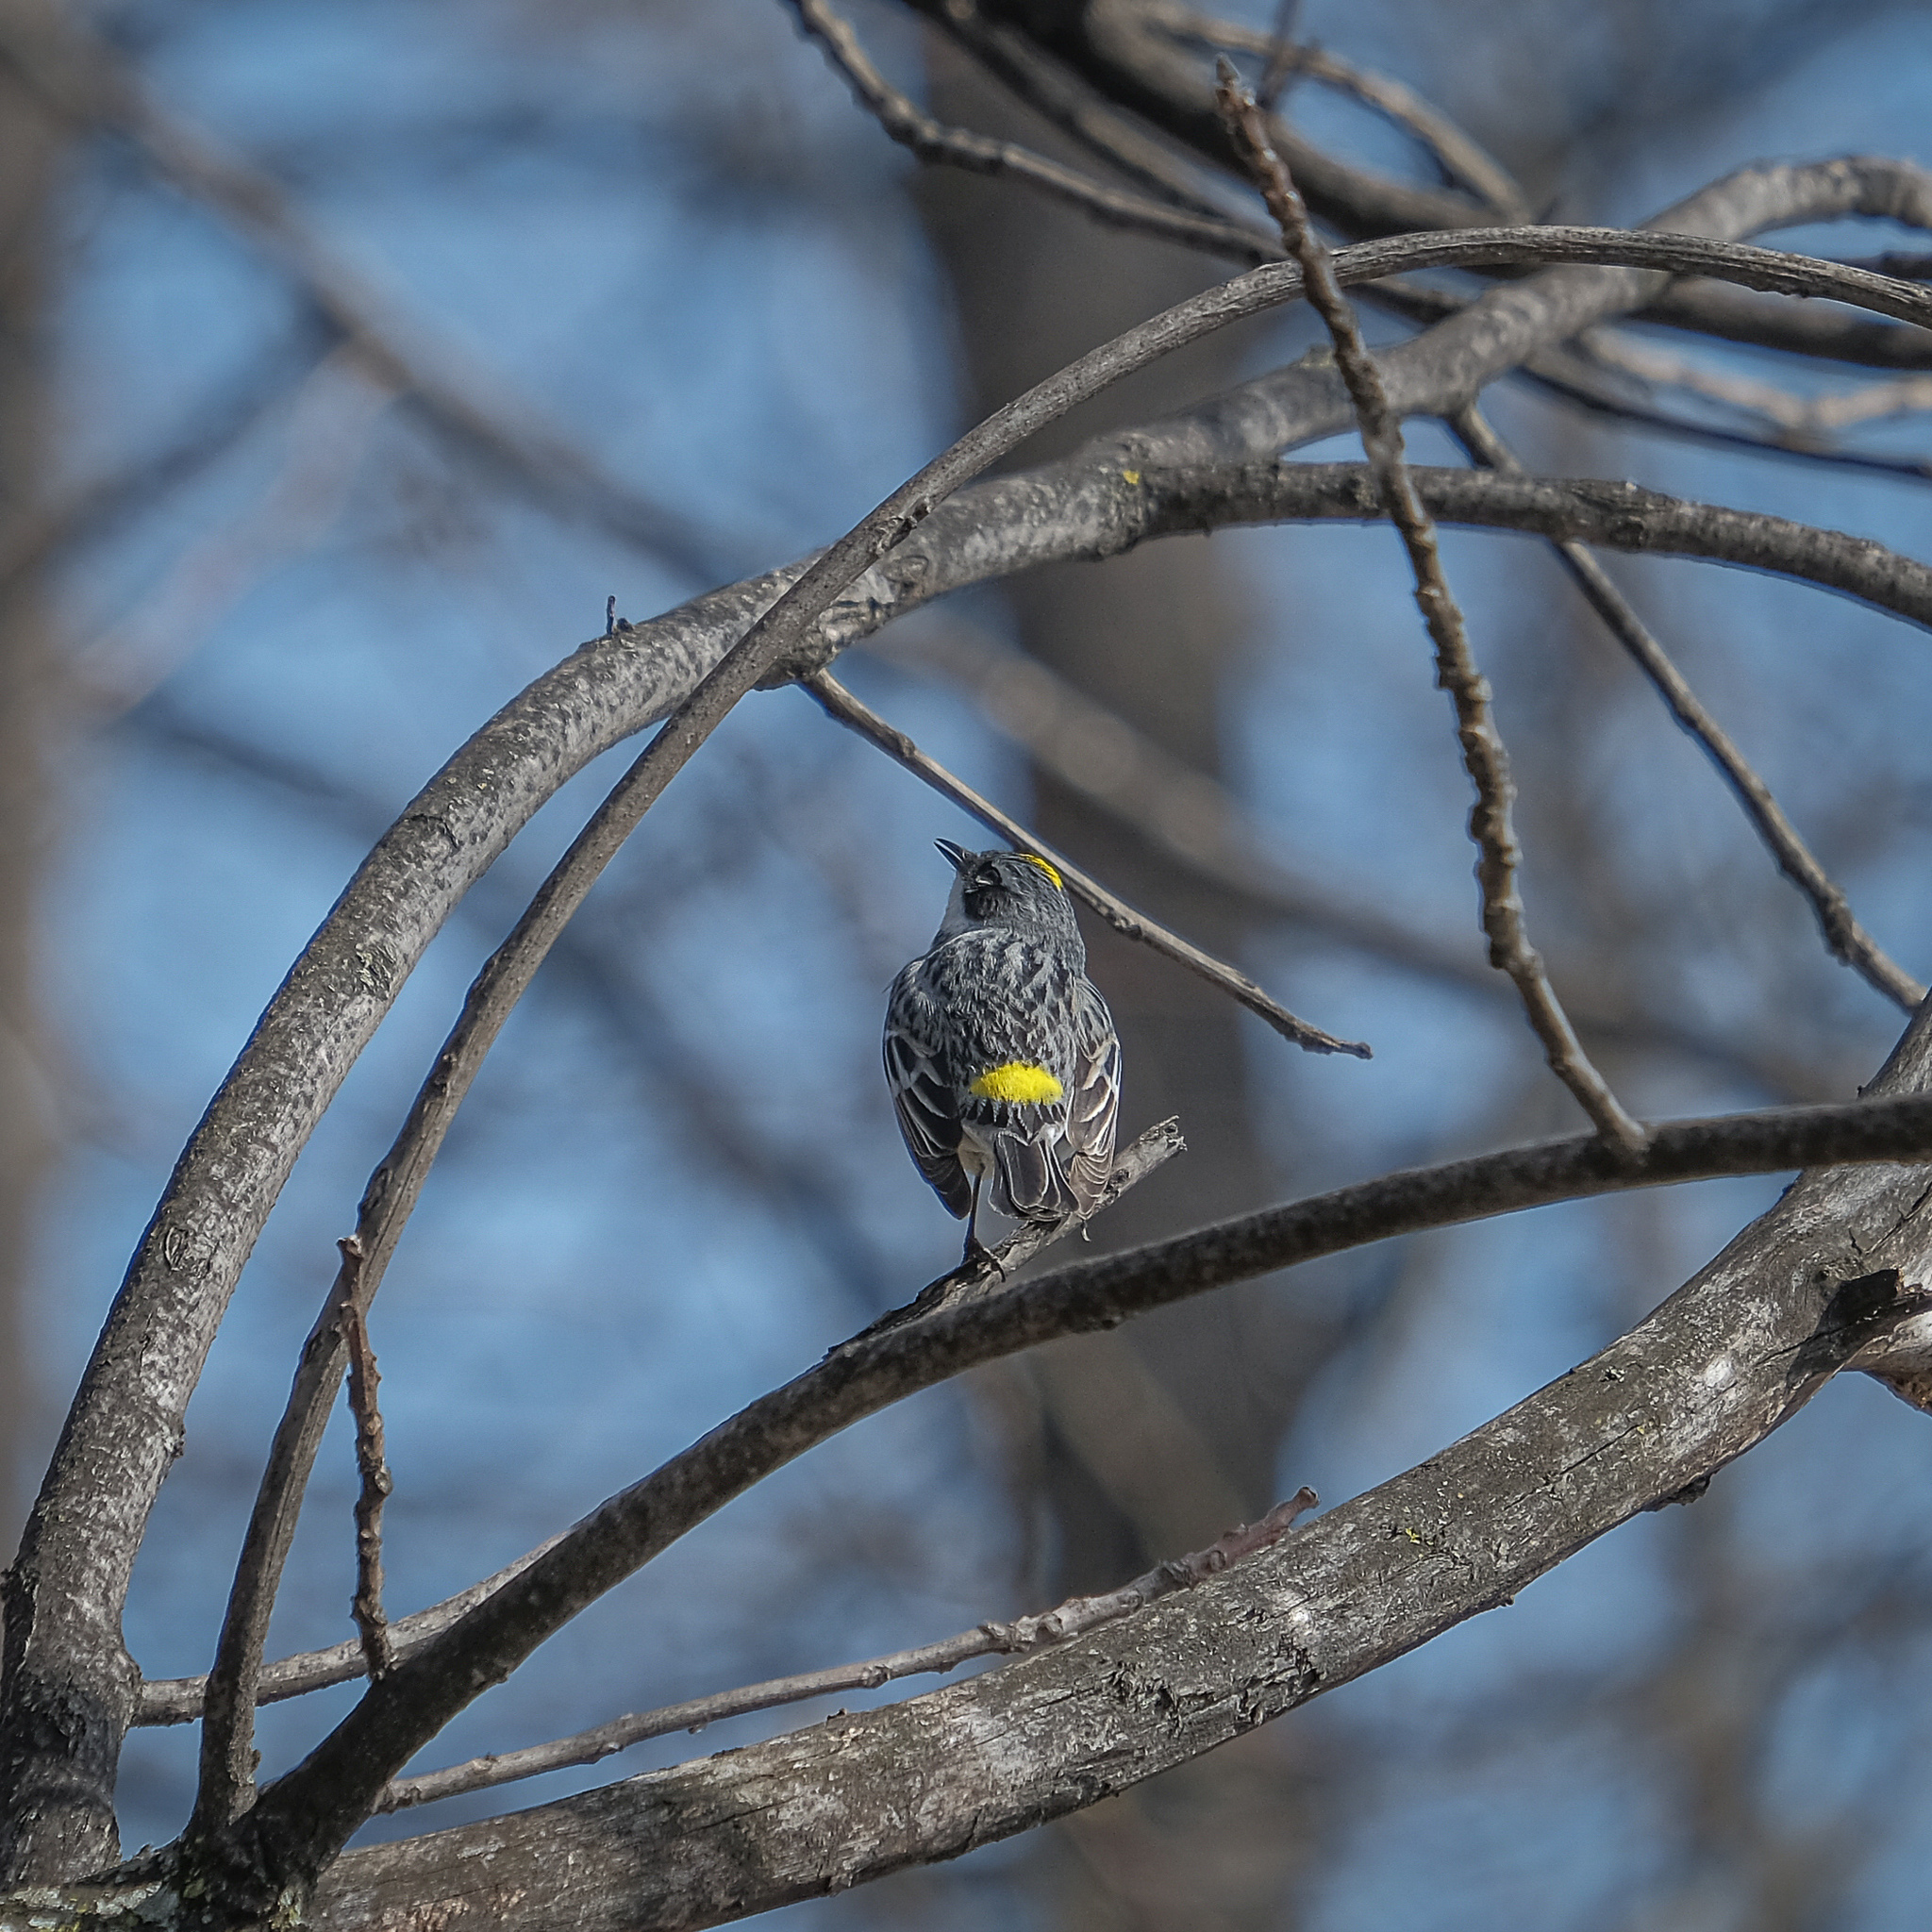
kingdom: Animalia
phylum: Chordata
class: Aves
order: Passeriformes
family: Parulidae
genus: Setophaga
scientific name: Setophaga coronata
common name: Myrtle warbler
